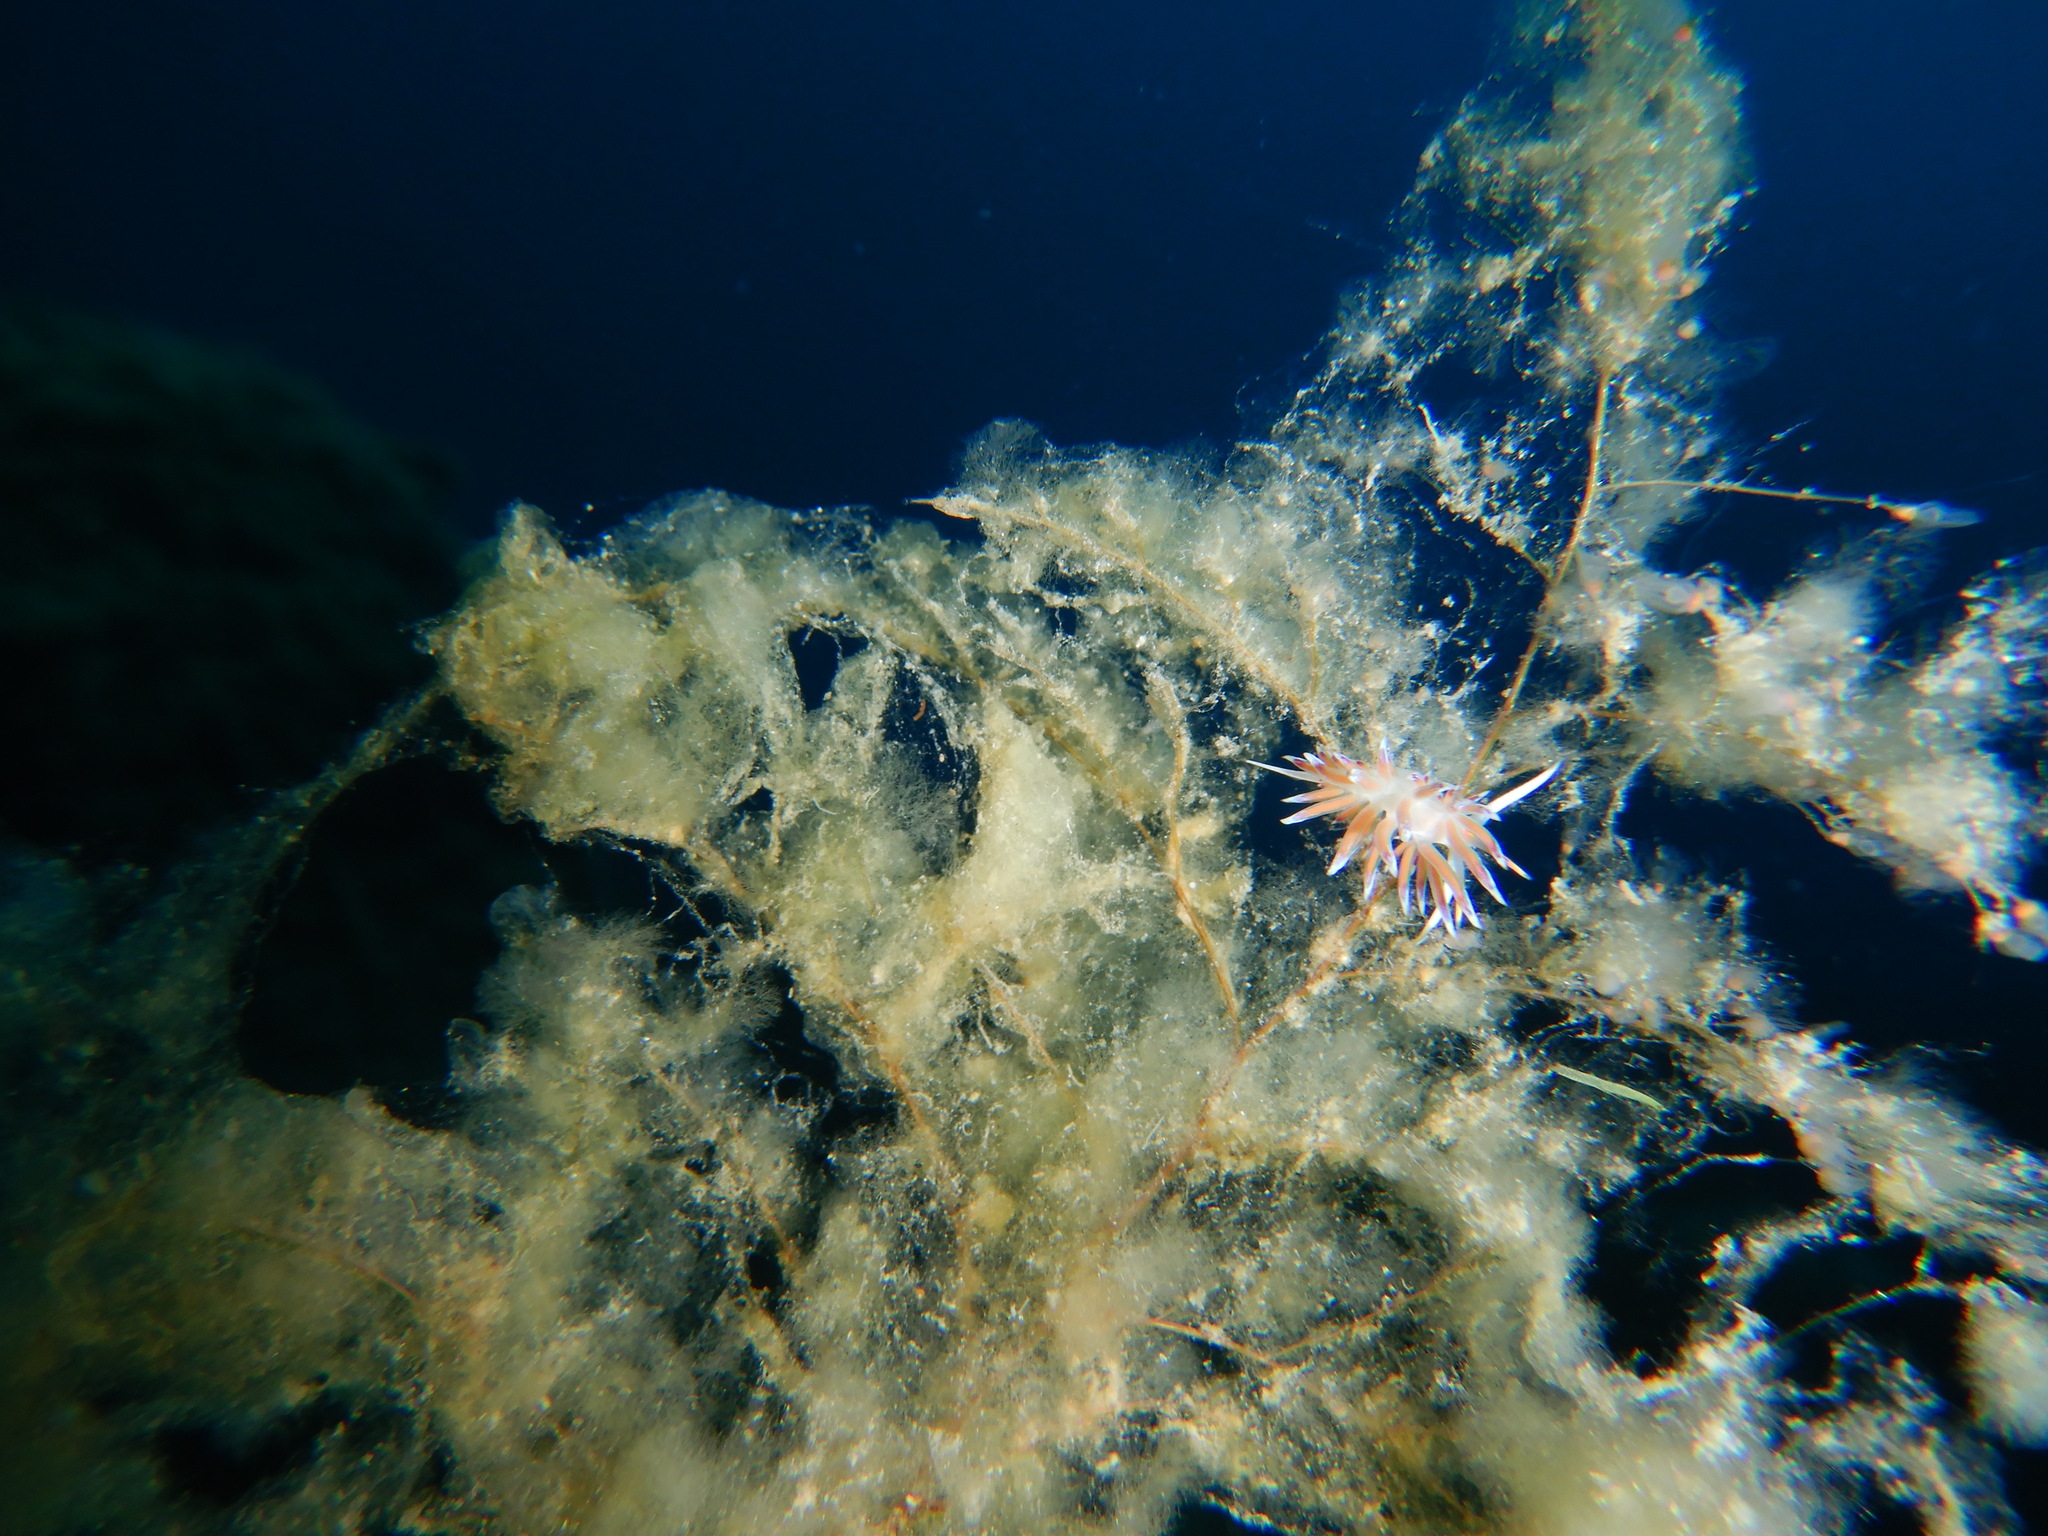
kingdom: Animalia
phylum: Mollusca
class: Gastropoda
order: Nudibranchia
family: Facelinidae
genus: Cratena
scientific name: Cratena peregrina
